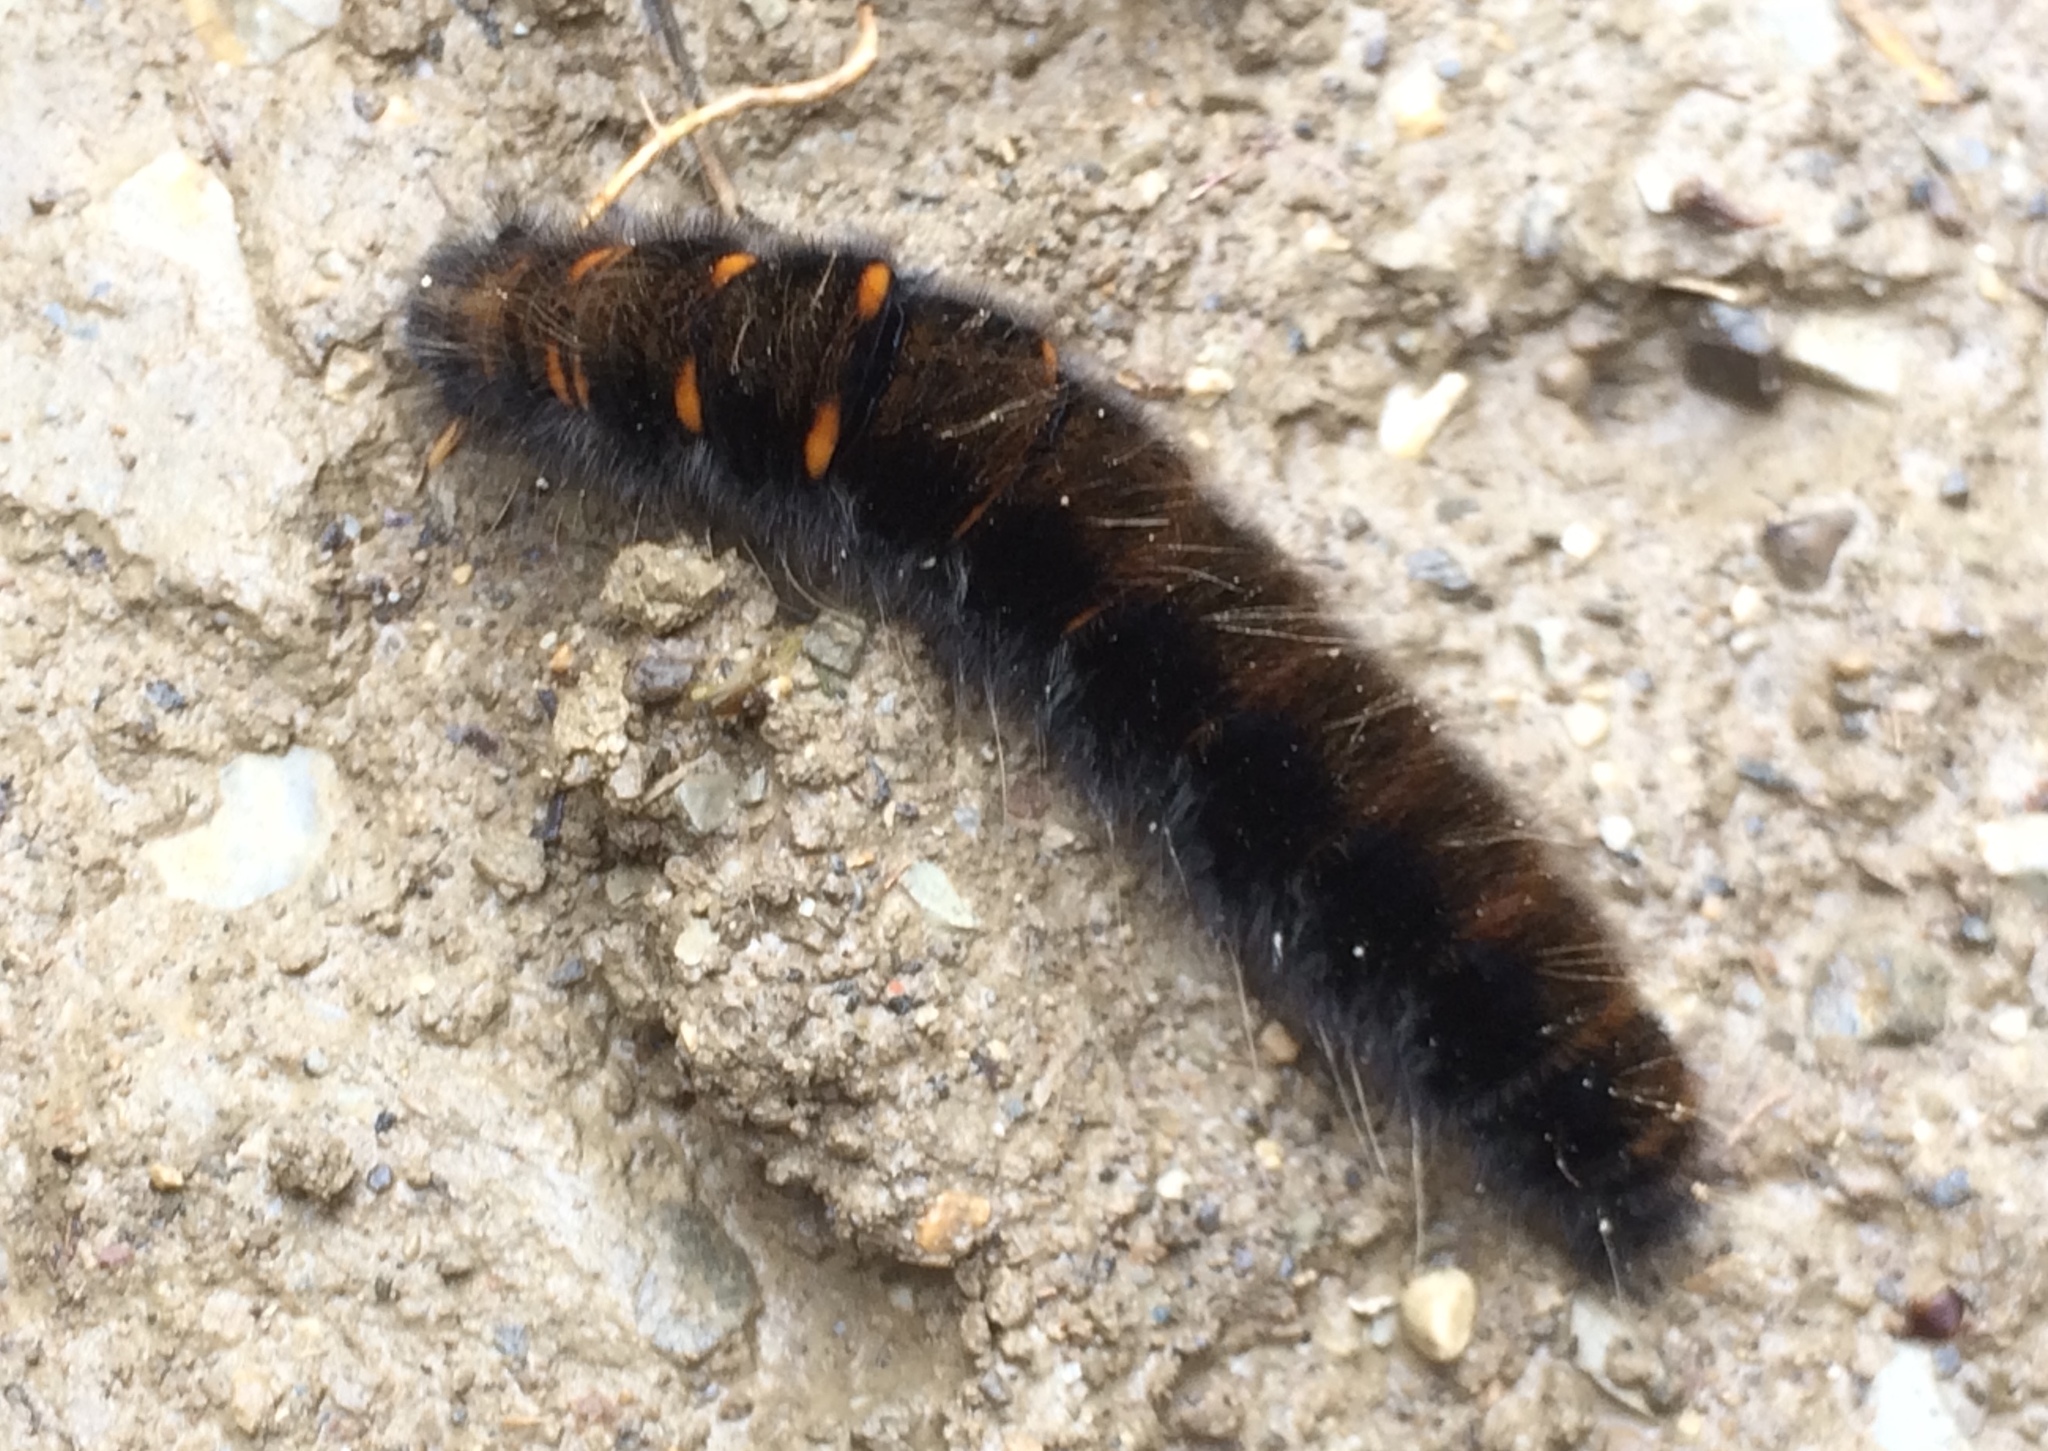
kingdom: Animalia
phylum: Arthropoda
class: Insecta
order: Lepidoptera
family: Lasiocampidae
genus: Macrothylacia
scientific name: Macrothylacia rubi
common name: Fox moth
